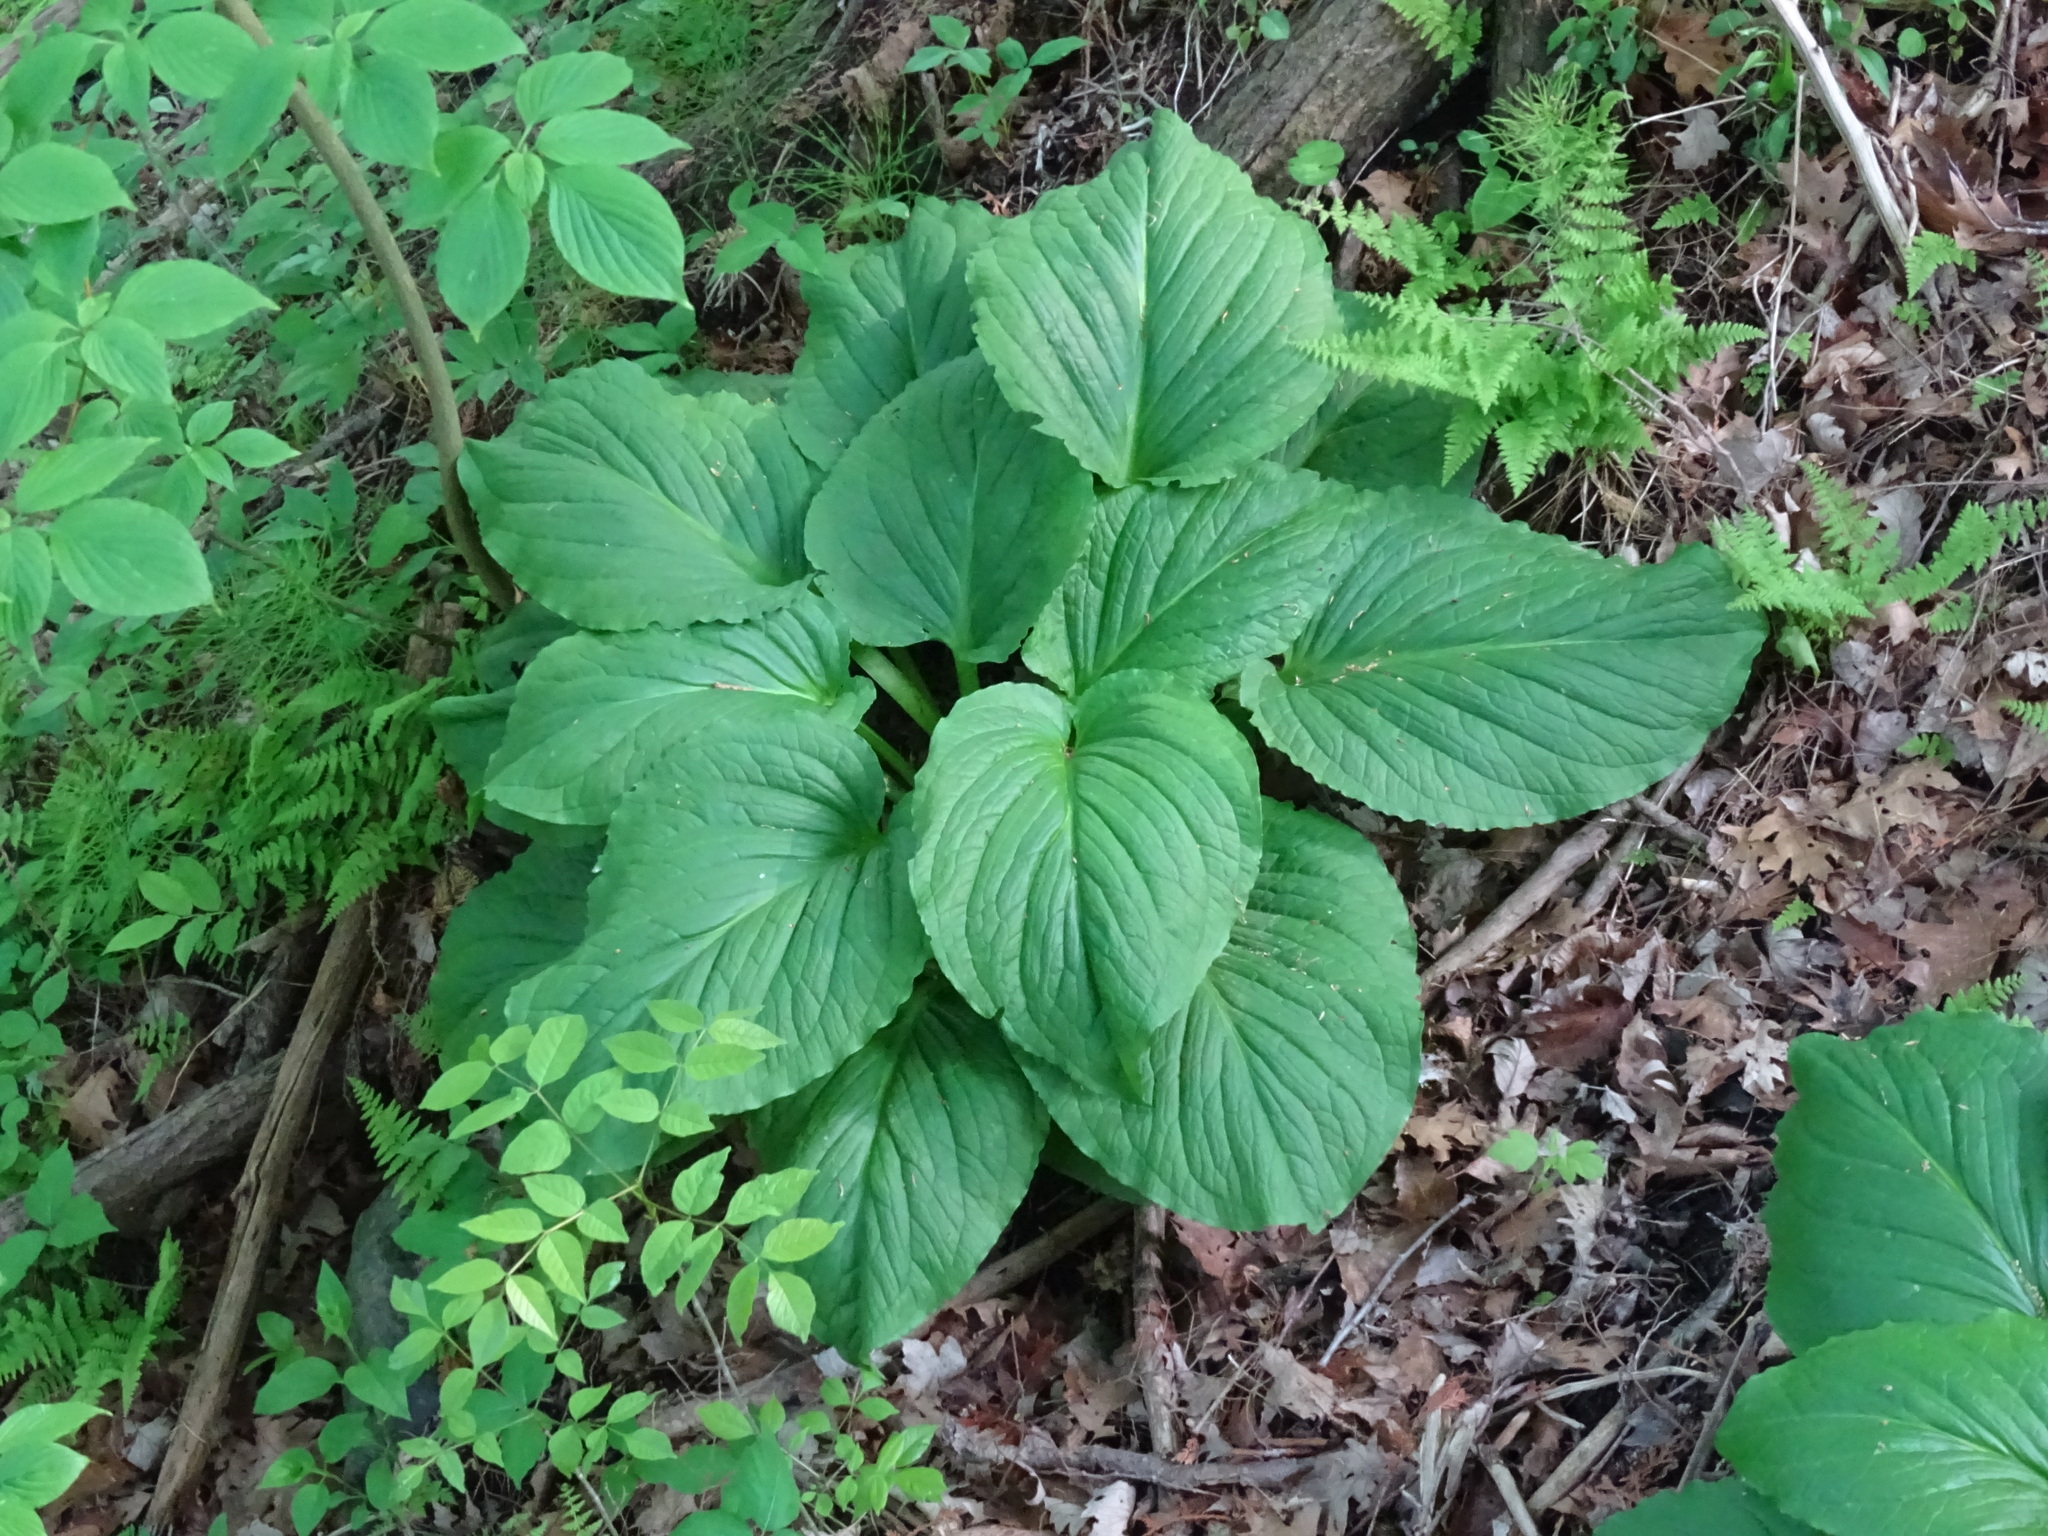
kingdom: Plantae
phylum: Tracheophyta
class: Liliopsida
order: Alismatales
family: Araceae
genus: Symplocarpus
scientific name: Symplocarpus foetidus
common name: Eastern skunk cabbage
